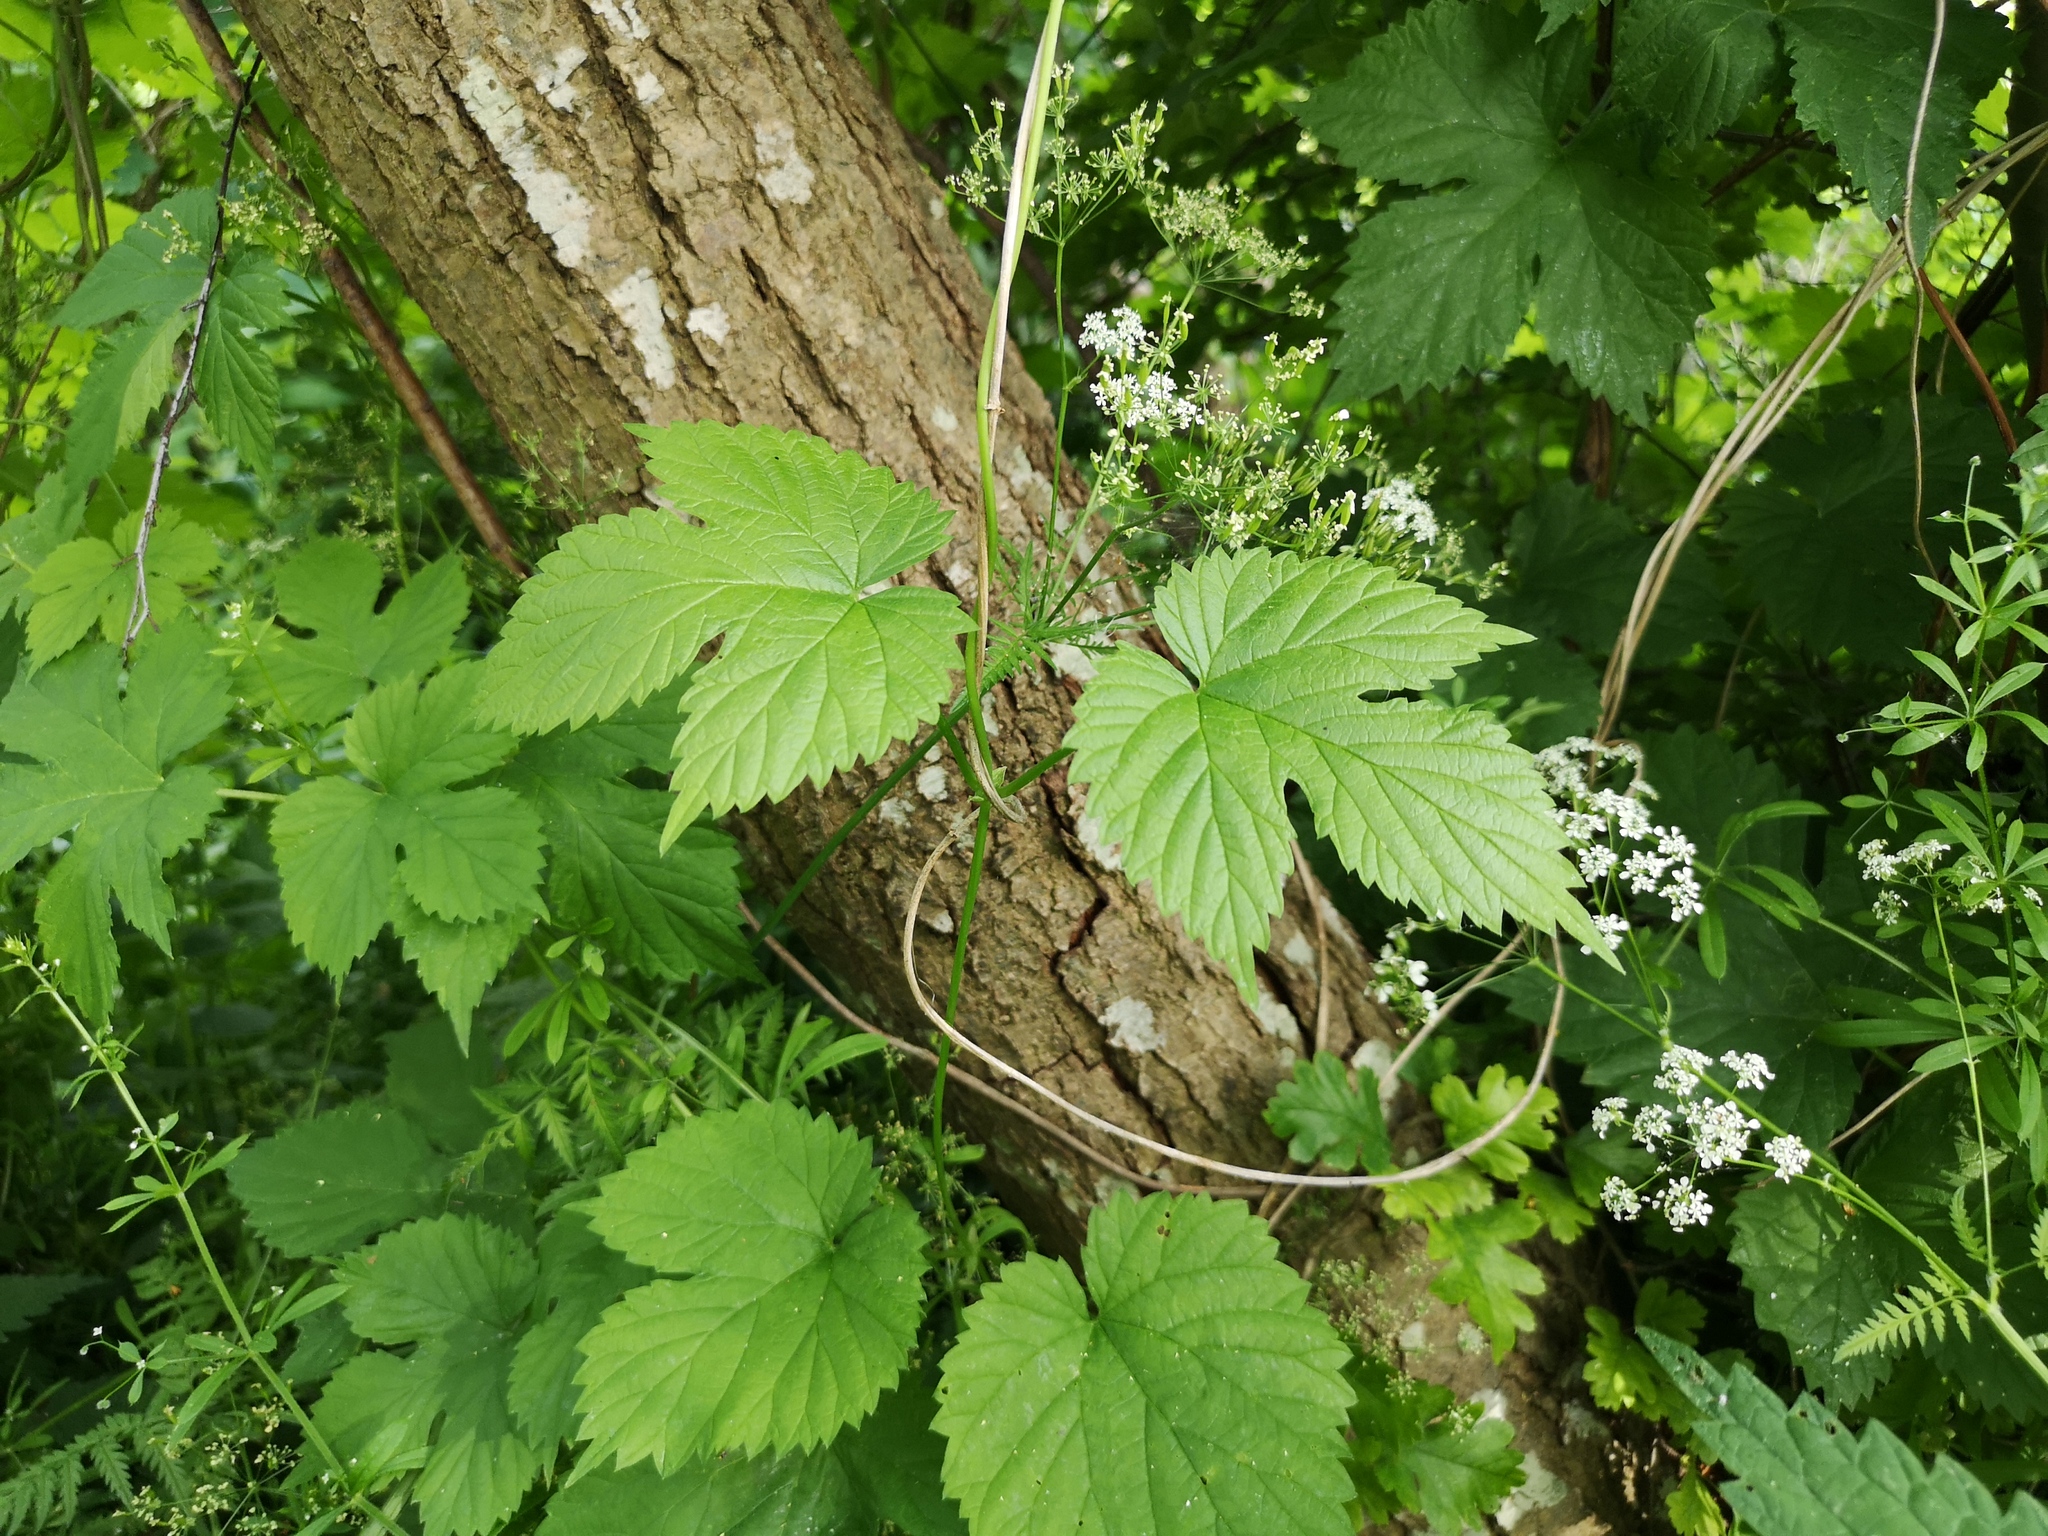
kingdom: Plantae
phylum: Tracheophyta
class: Magnoliopsida
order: Rosales
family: Cannabaceae
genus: Humulus
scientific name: Humulus lupulus
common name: Hop
